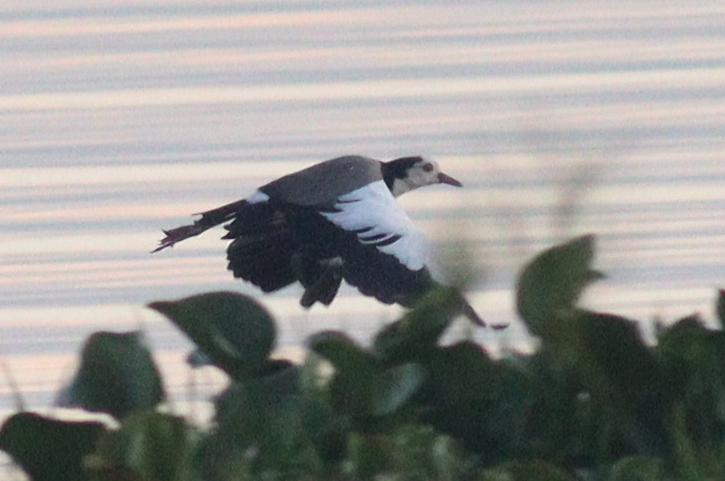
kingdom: Animalia
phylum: Chordata
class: Aves
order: Charadriiformes
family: Charadriidae
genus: Vanellus
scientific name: Vanellus crassirostris
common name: Long-toed lapwing
